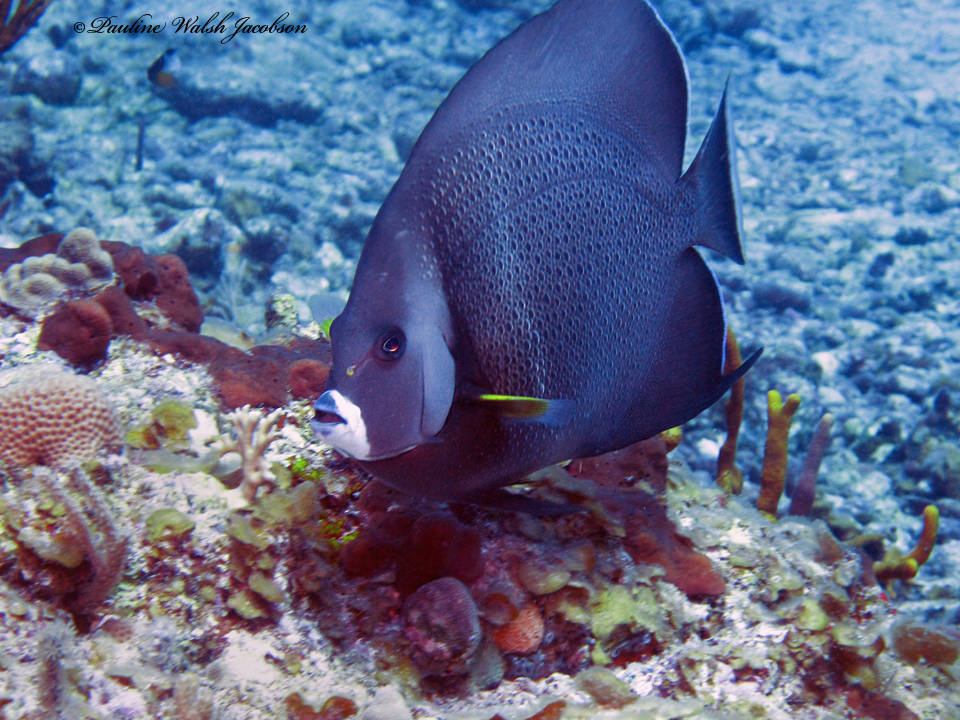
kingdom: Animalia
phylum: Chordata
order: Perciformes
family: Pomacanthidae
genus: Pomacanthus
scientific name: Pomacanthus arcuatus
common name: Gray angelfish
